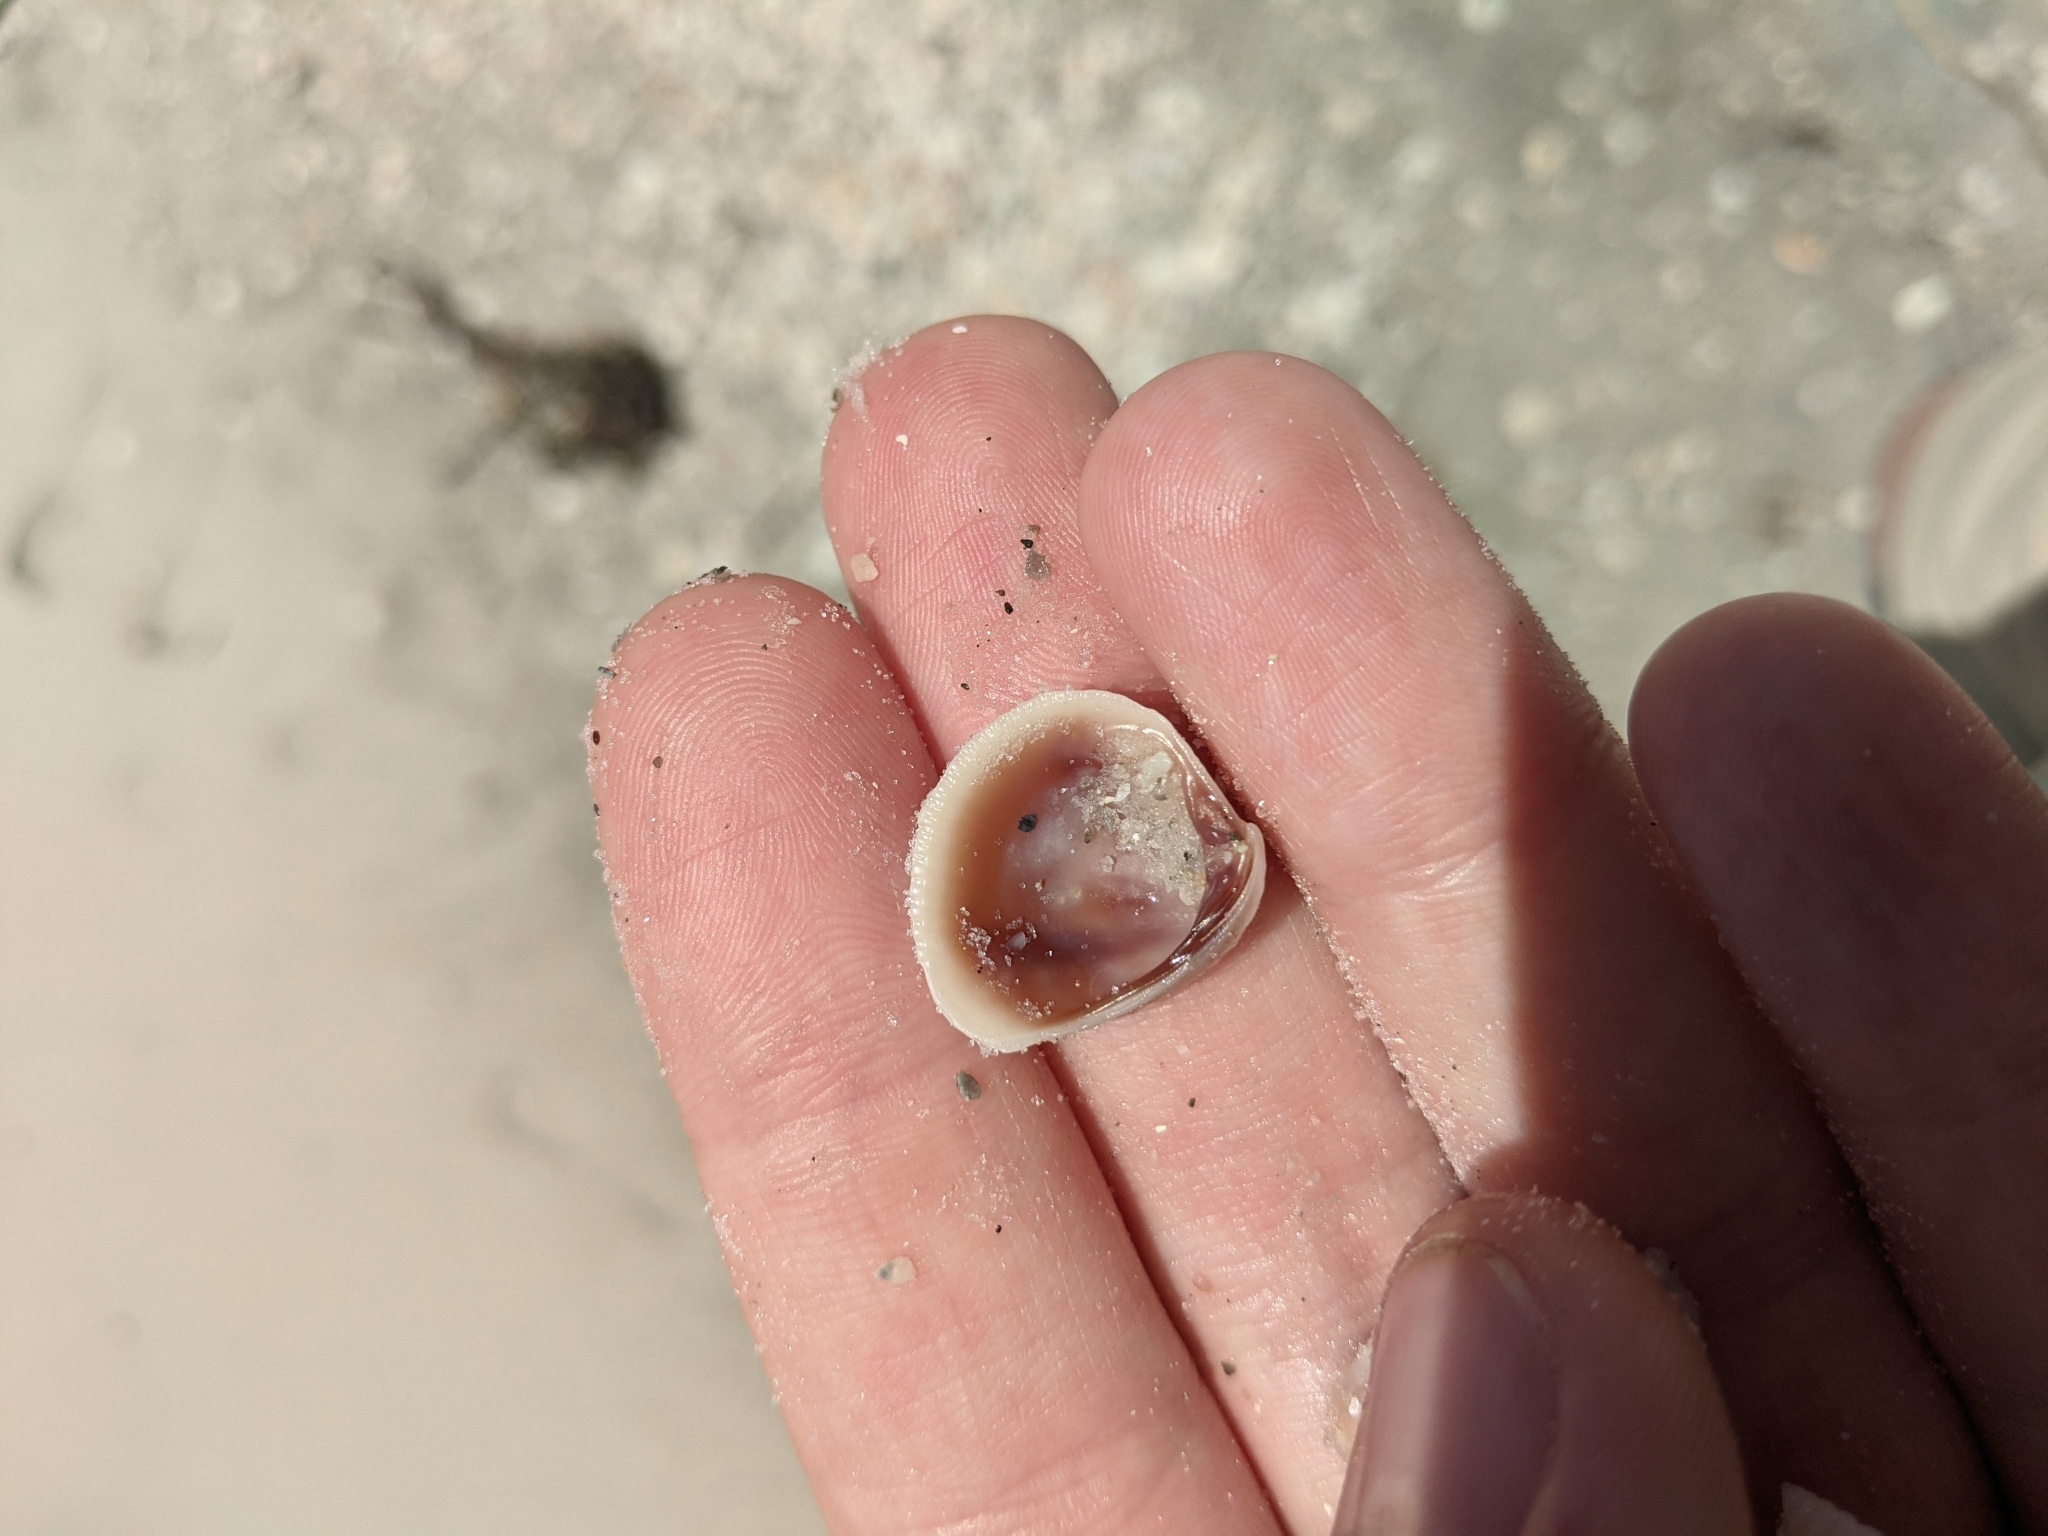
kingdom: Animalia
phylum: Mollusca
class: Bivalvia
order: Venerida
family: Veneridae
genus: Chione
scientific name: Chione elevata
